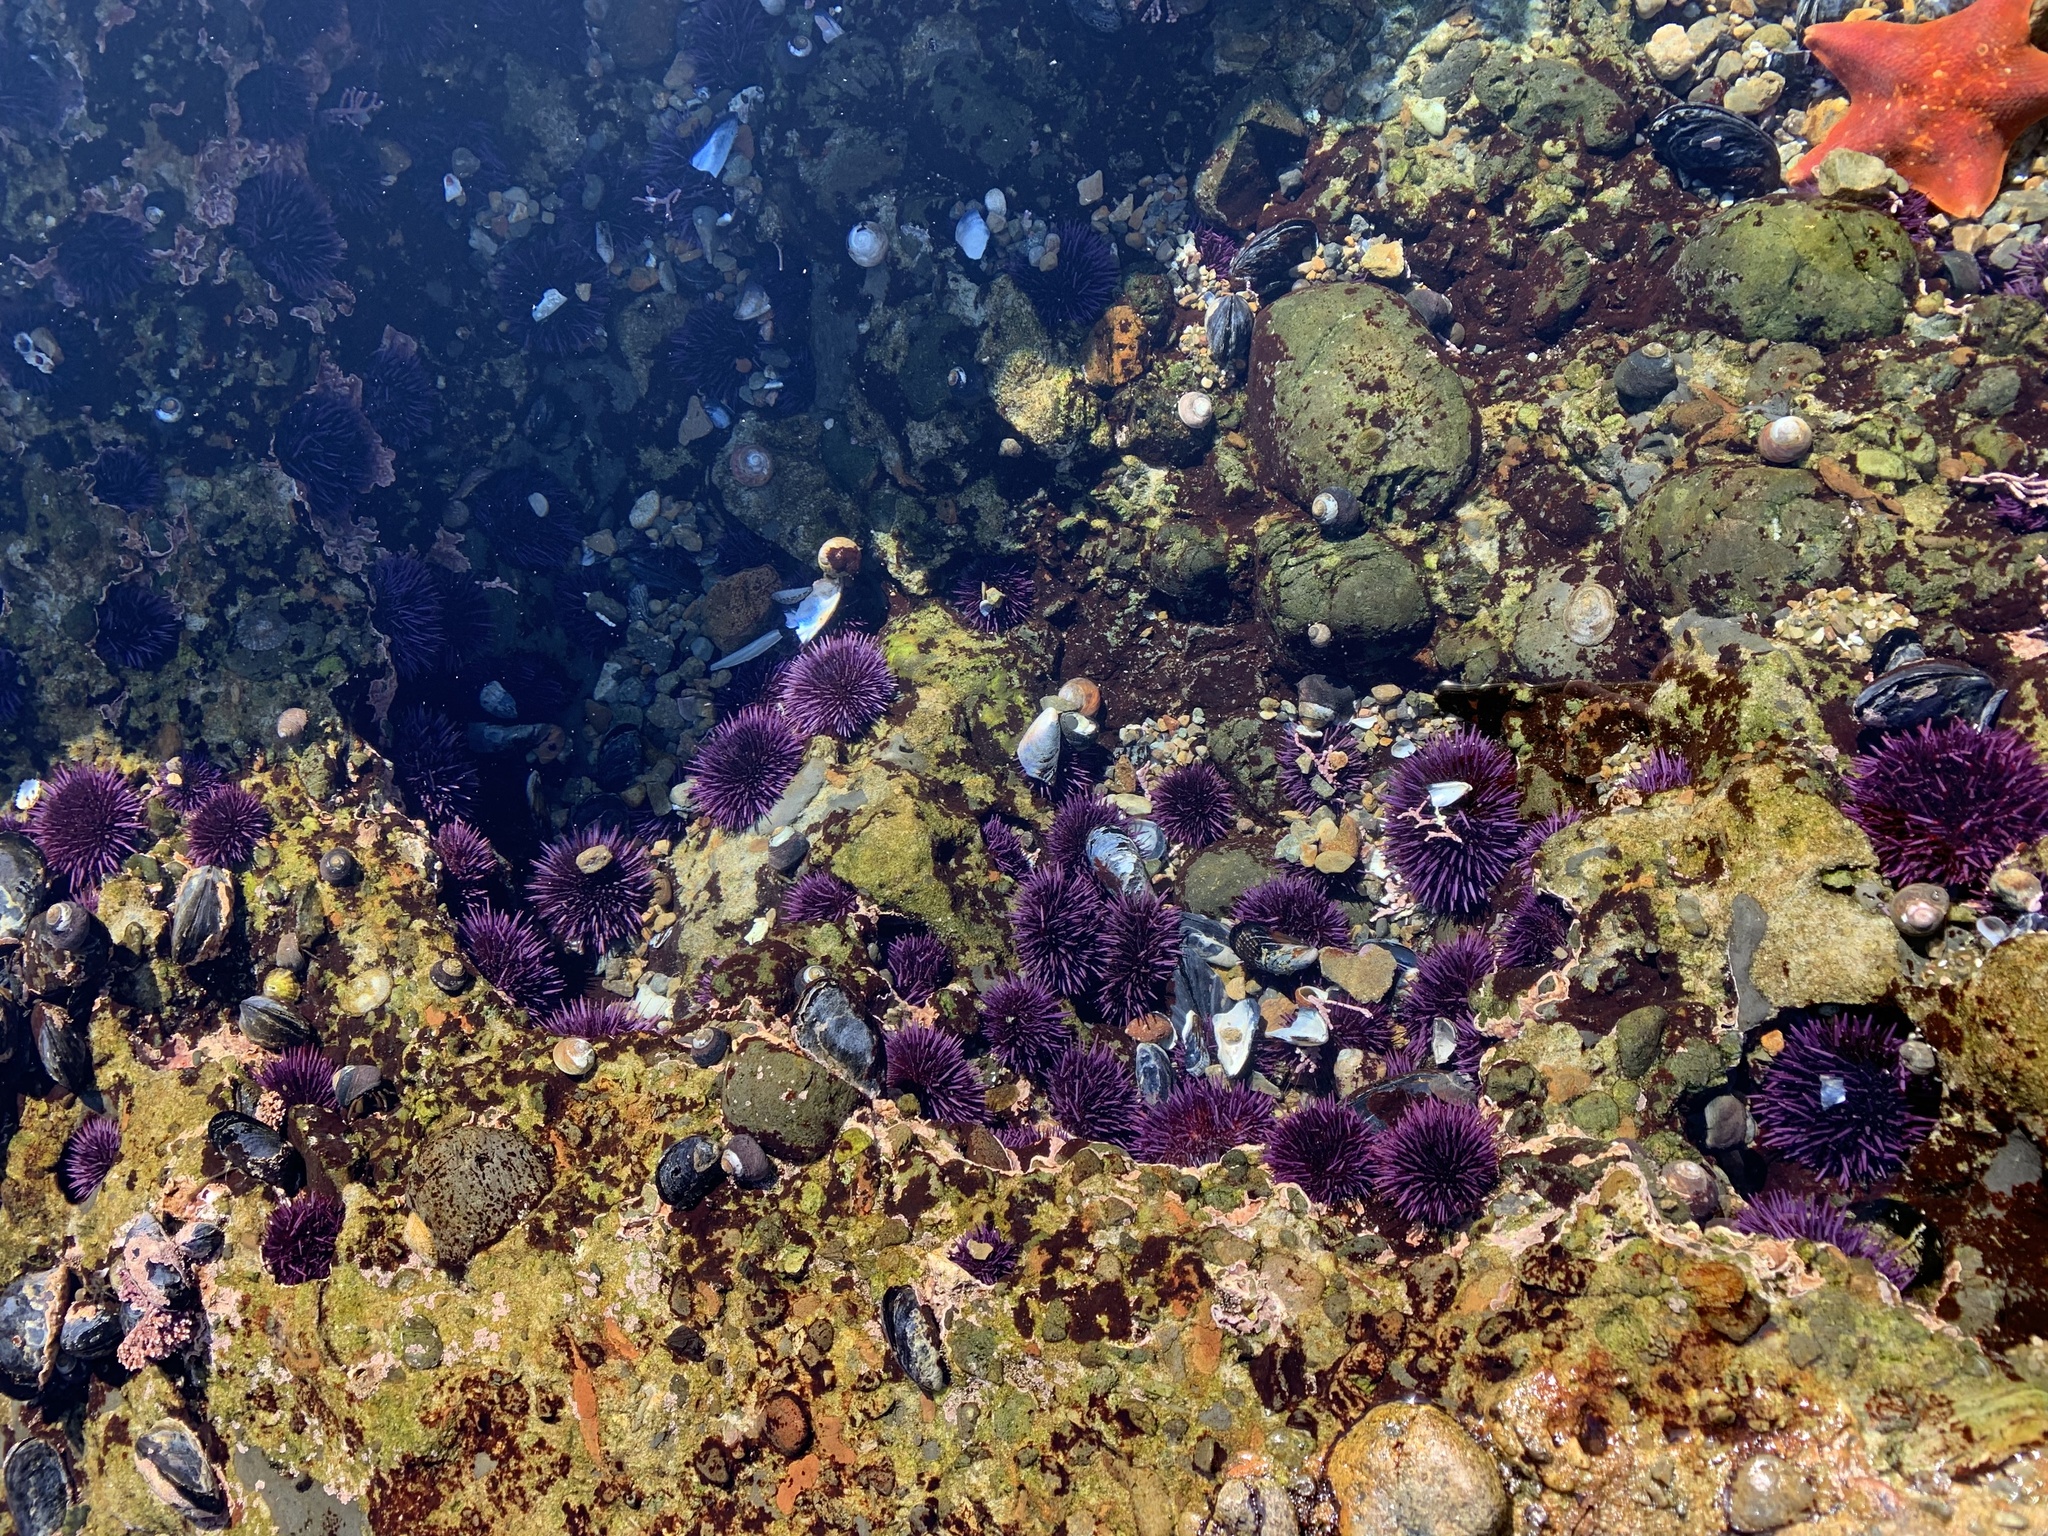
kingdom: Animalia
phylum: Echinodermata
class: Echinoidea
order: Camarodonta
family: Strongylocentrotidae
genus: Strongylocentrotus
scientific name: Strongylocentrotus purpuratus
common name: Purple sea urchin
